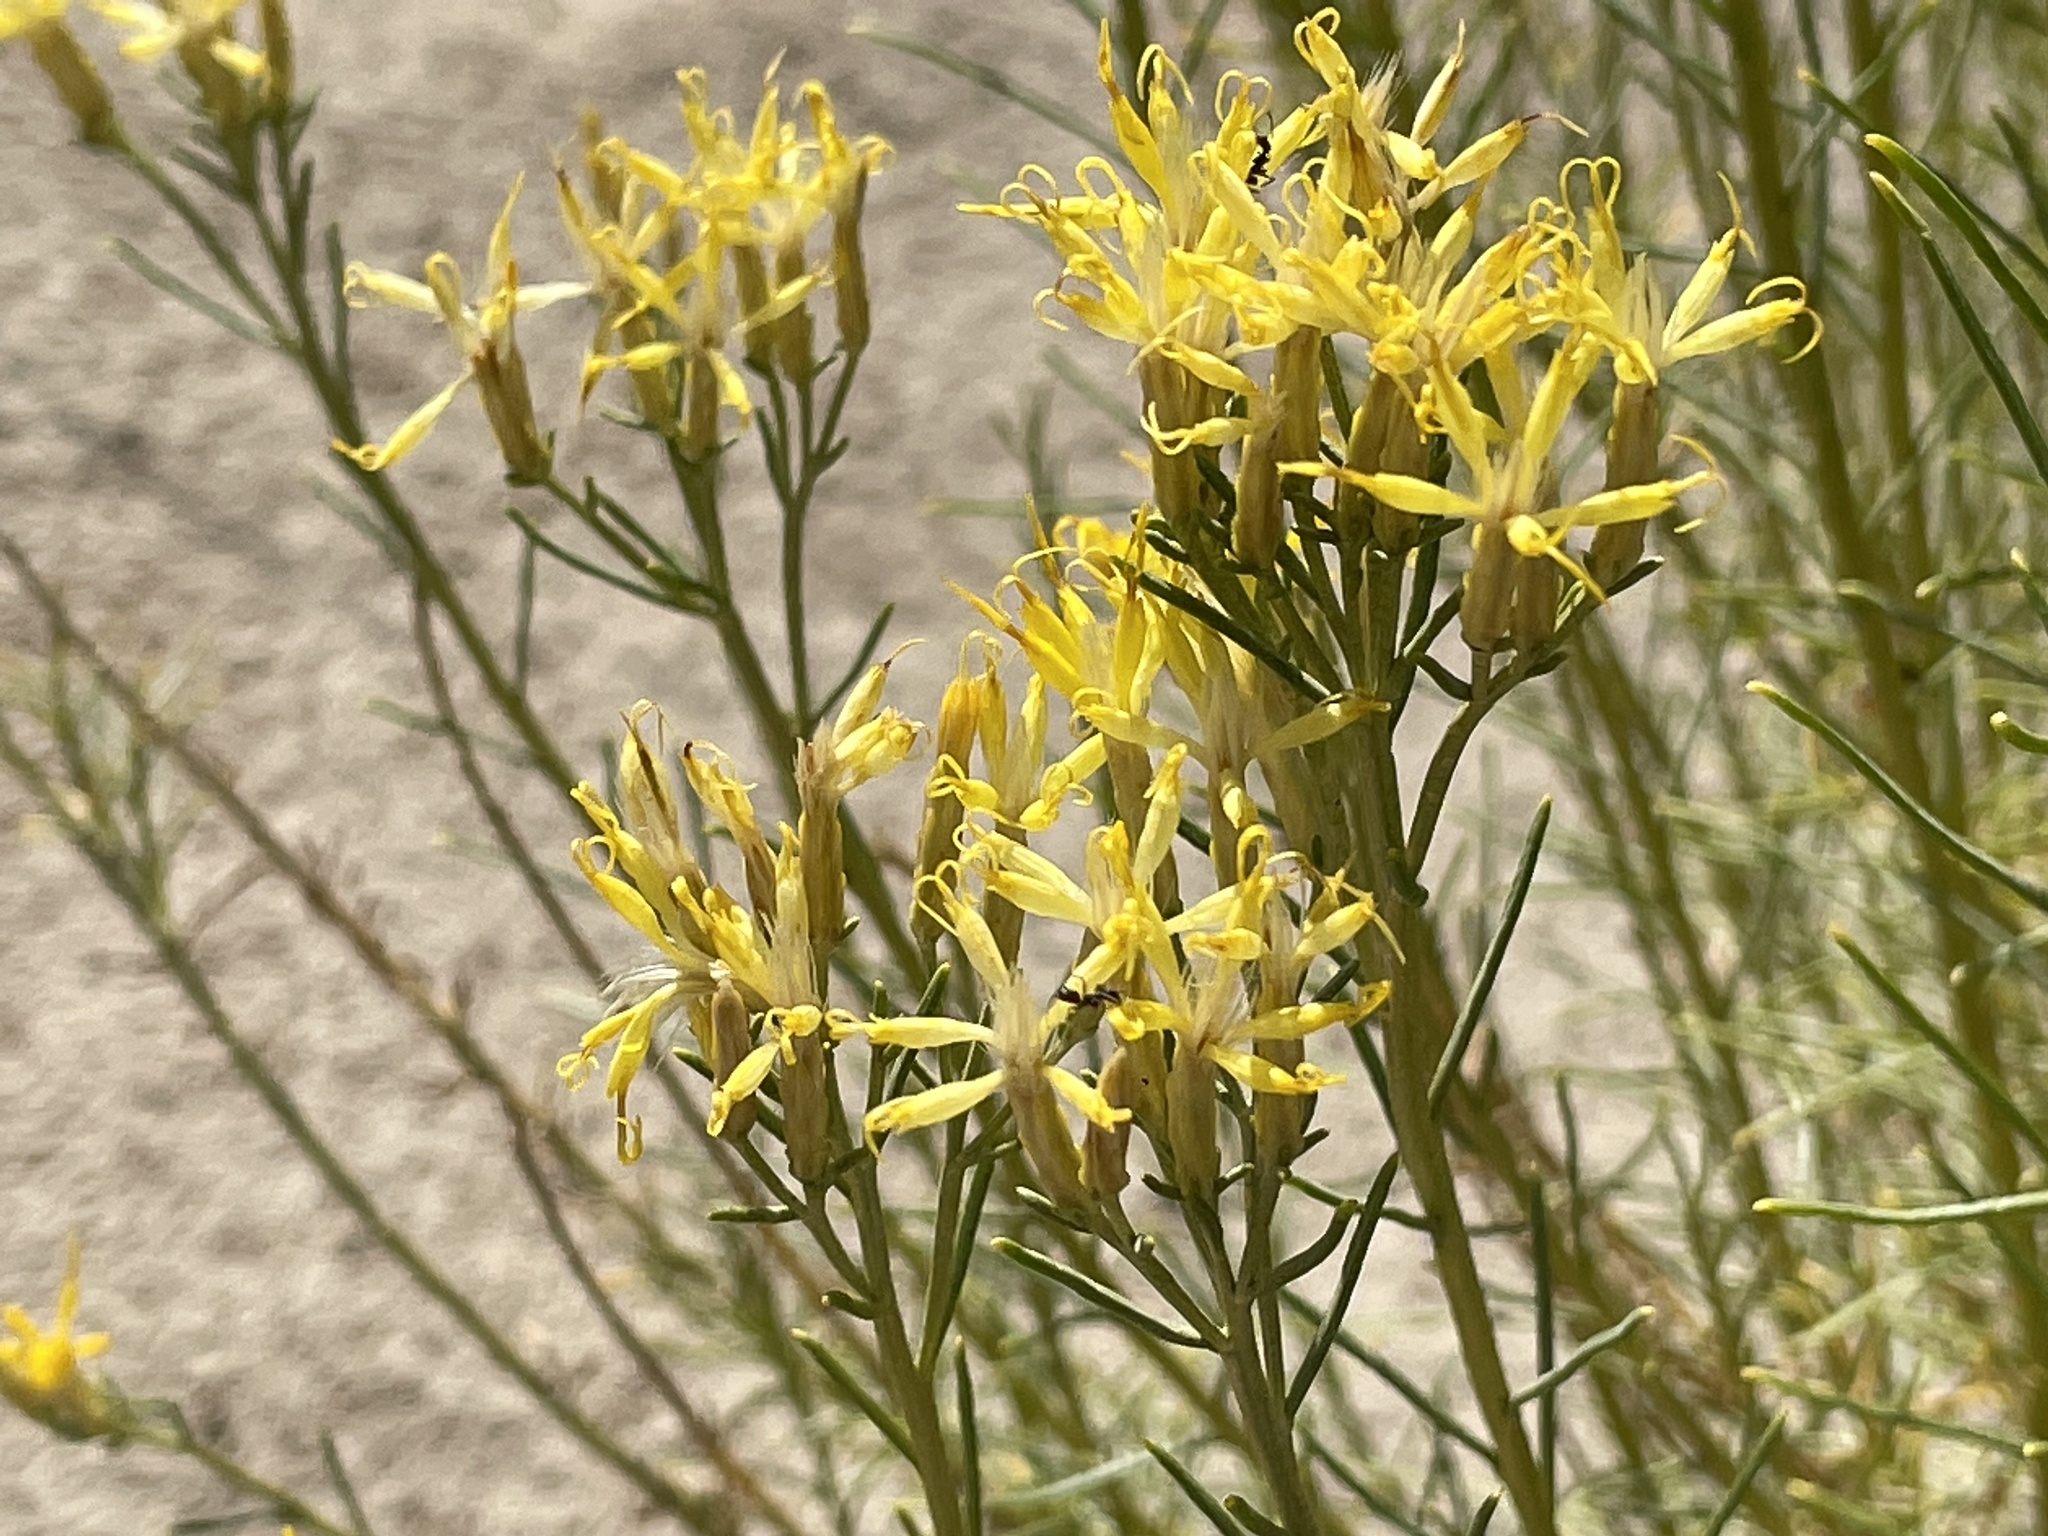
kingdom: Plantae
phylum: Tracheophyta
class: Magnoliopsida
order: Asterales
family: Asteraceae
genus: Ericameria
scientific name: Ericameria nauseosa
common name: Rubber rabbitbrush
